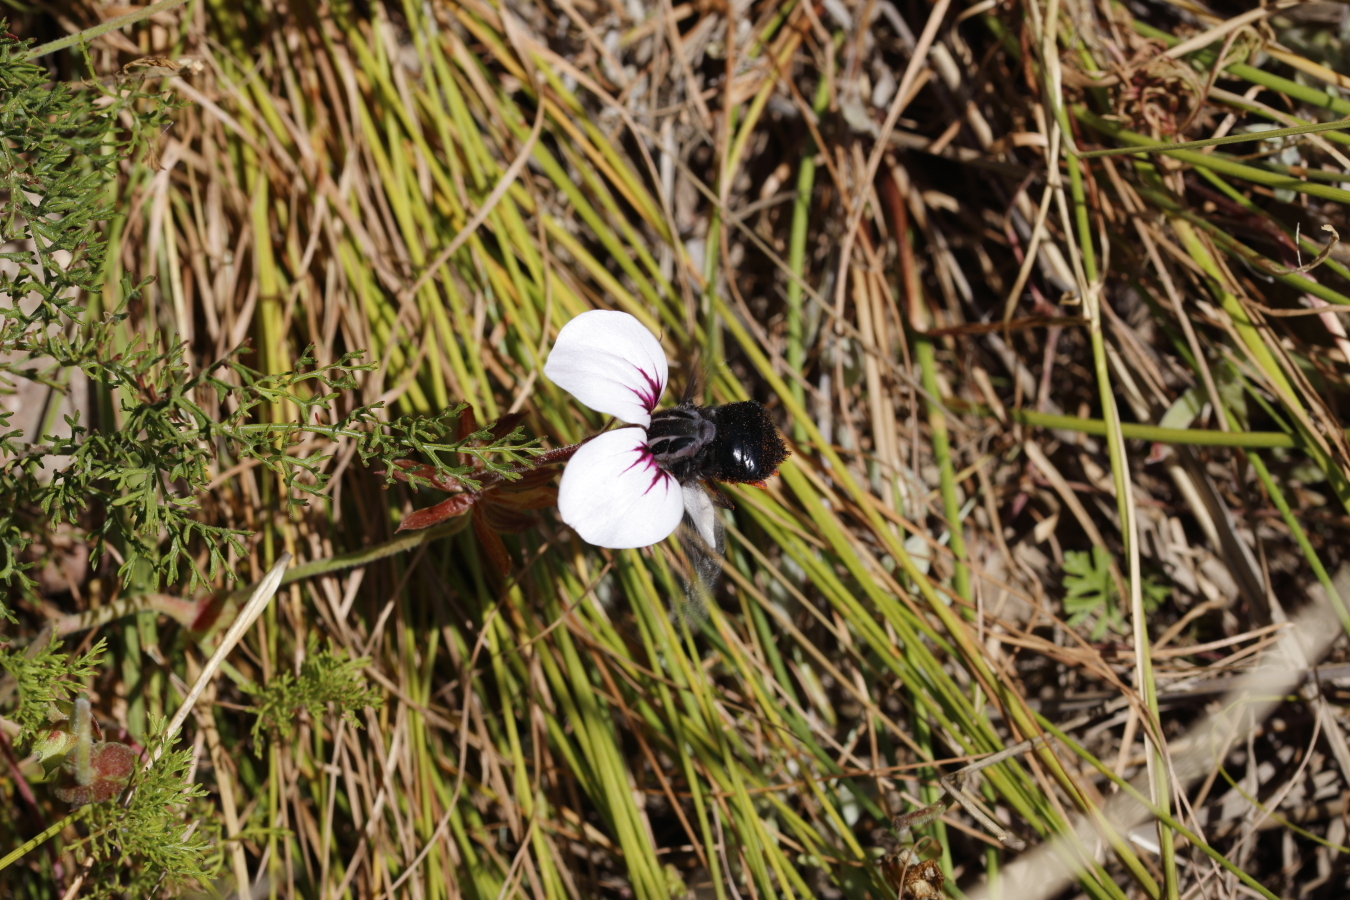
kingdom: Animalia
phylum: Arthropoda
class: Insecta
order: Diptera
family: Nemestrinidae
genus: Prosoeca
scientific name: Prosoeca westermanni
